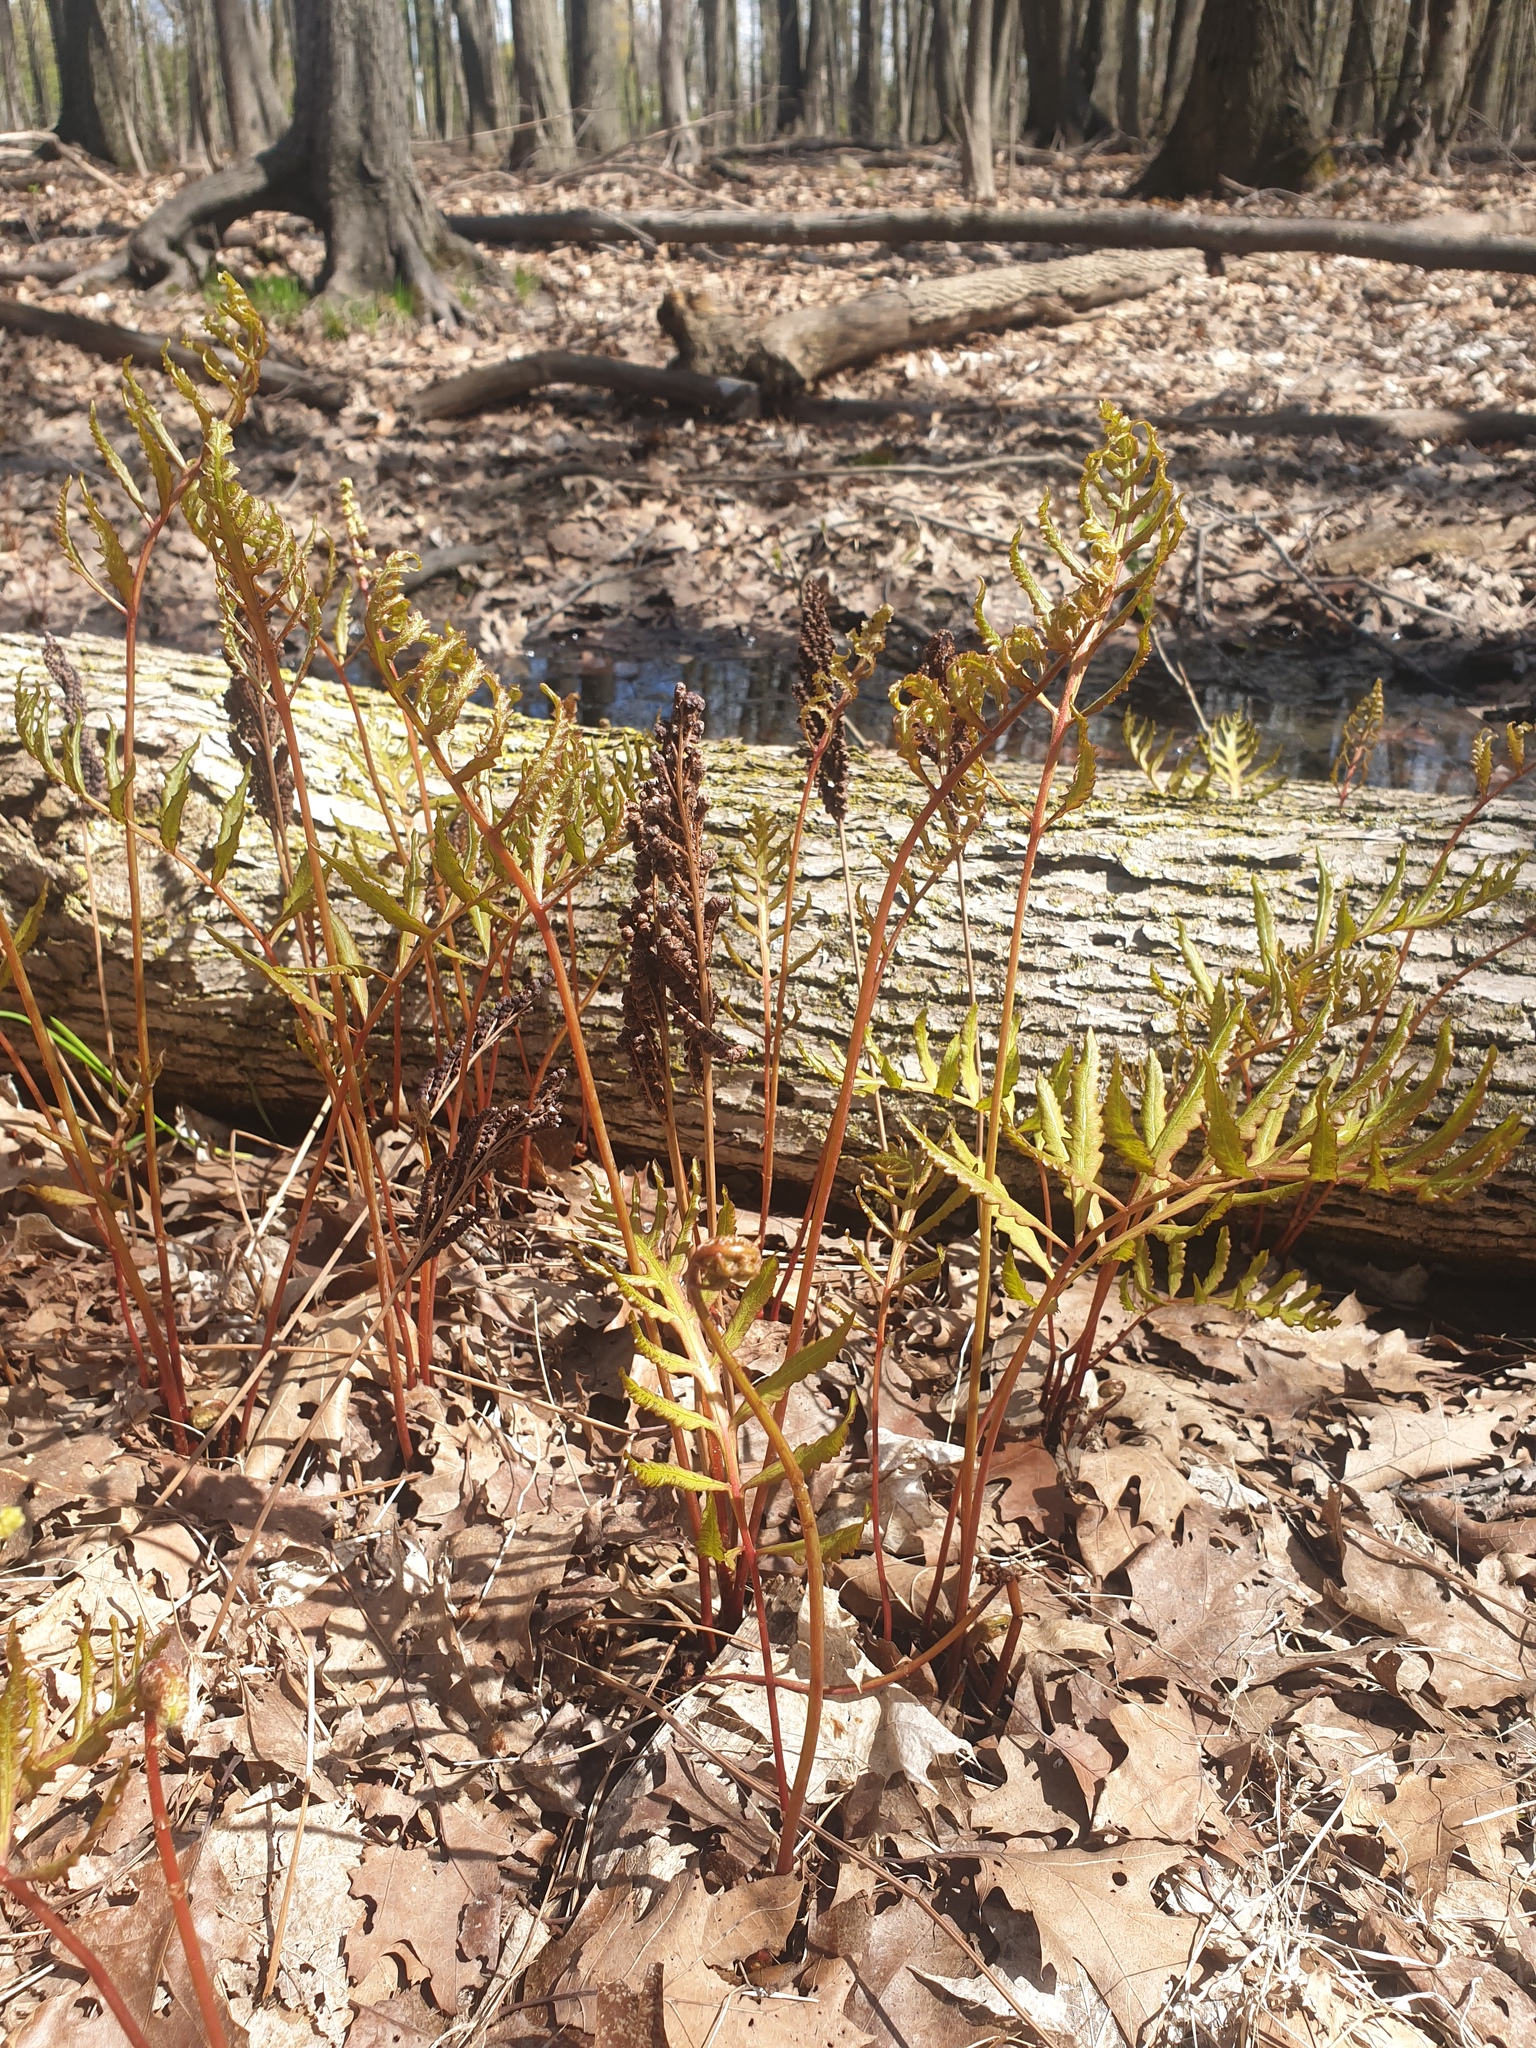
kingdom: Plantae
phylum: Tracheophyta
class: Polypodiopsida
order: Polypodiales
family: Onocleaceae
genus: Onoclea
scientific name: Onoclea sensibilis
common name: Sensitive fern
